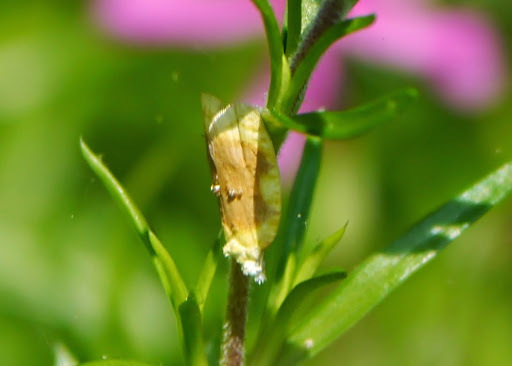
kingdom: Animalia
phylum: Arthropoda
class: Insecta
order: Lepidoptera
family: Tortricidae
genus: Acleris
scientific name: Acleris semipurpurana
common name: Oak leaftier moth
